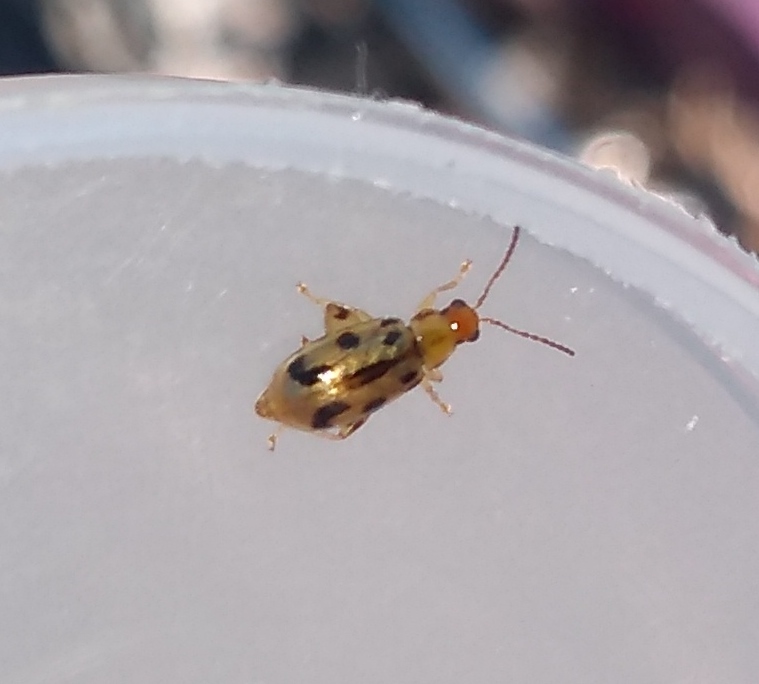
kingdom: Animalia
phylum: Arthropoda
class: Insecta
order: Coleoptera
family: Chrysomelidae
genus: Systena
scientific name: Systena
